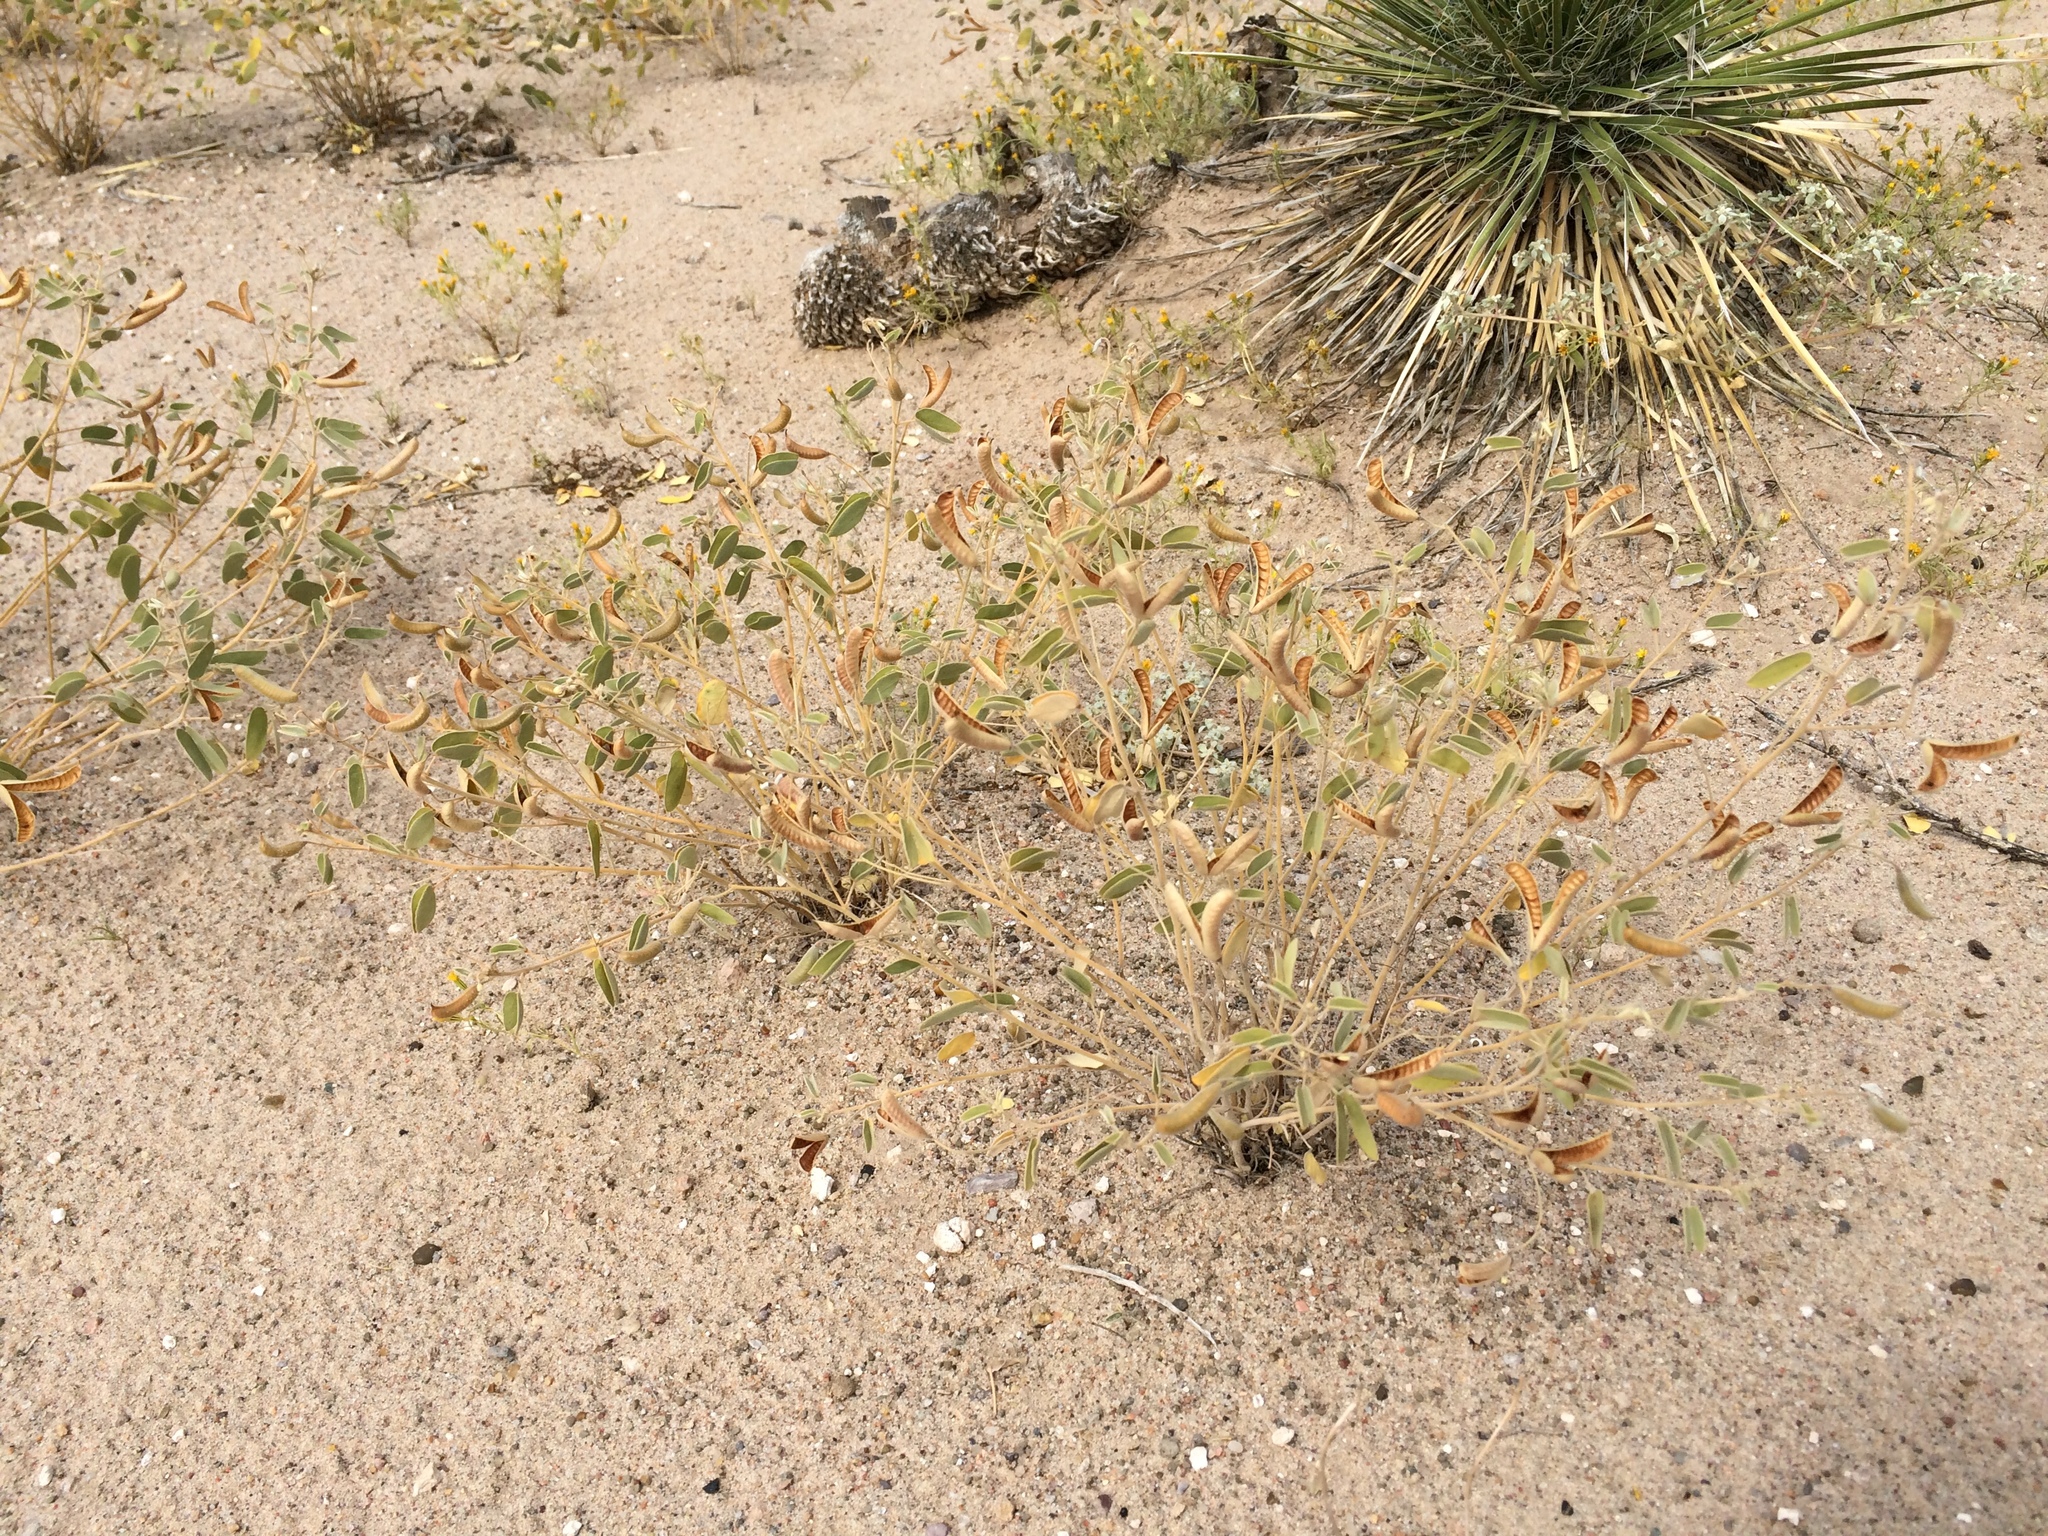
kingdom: Plantae
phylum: Tracheophyta
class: Magnoliopsida
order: Fabales
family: Fabaceae
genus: Senna
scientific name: Senna bauhinioides
